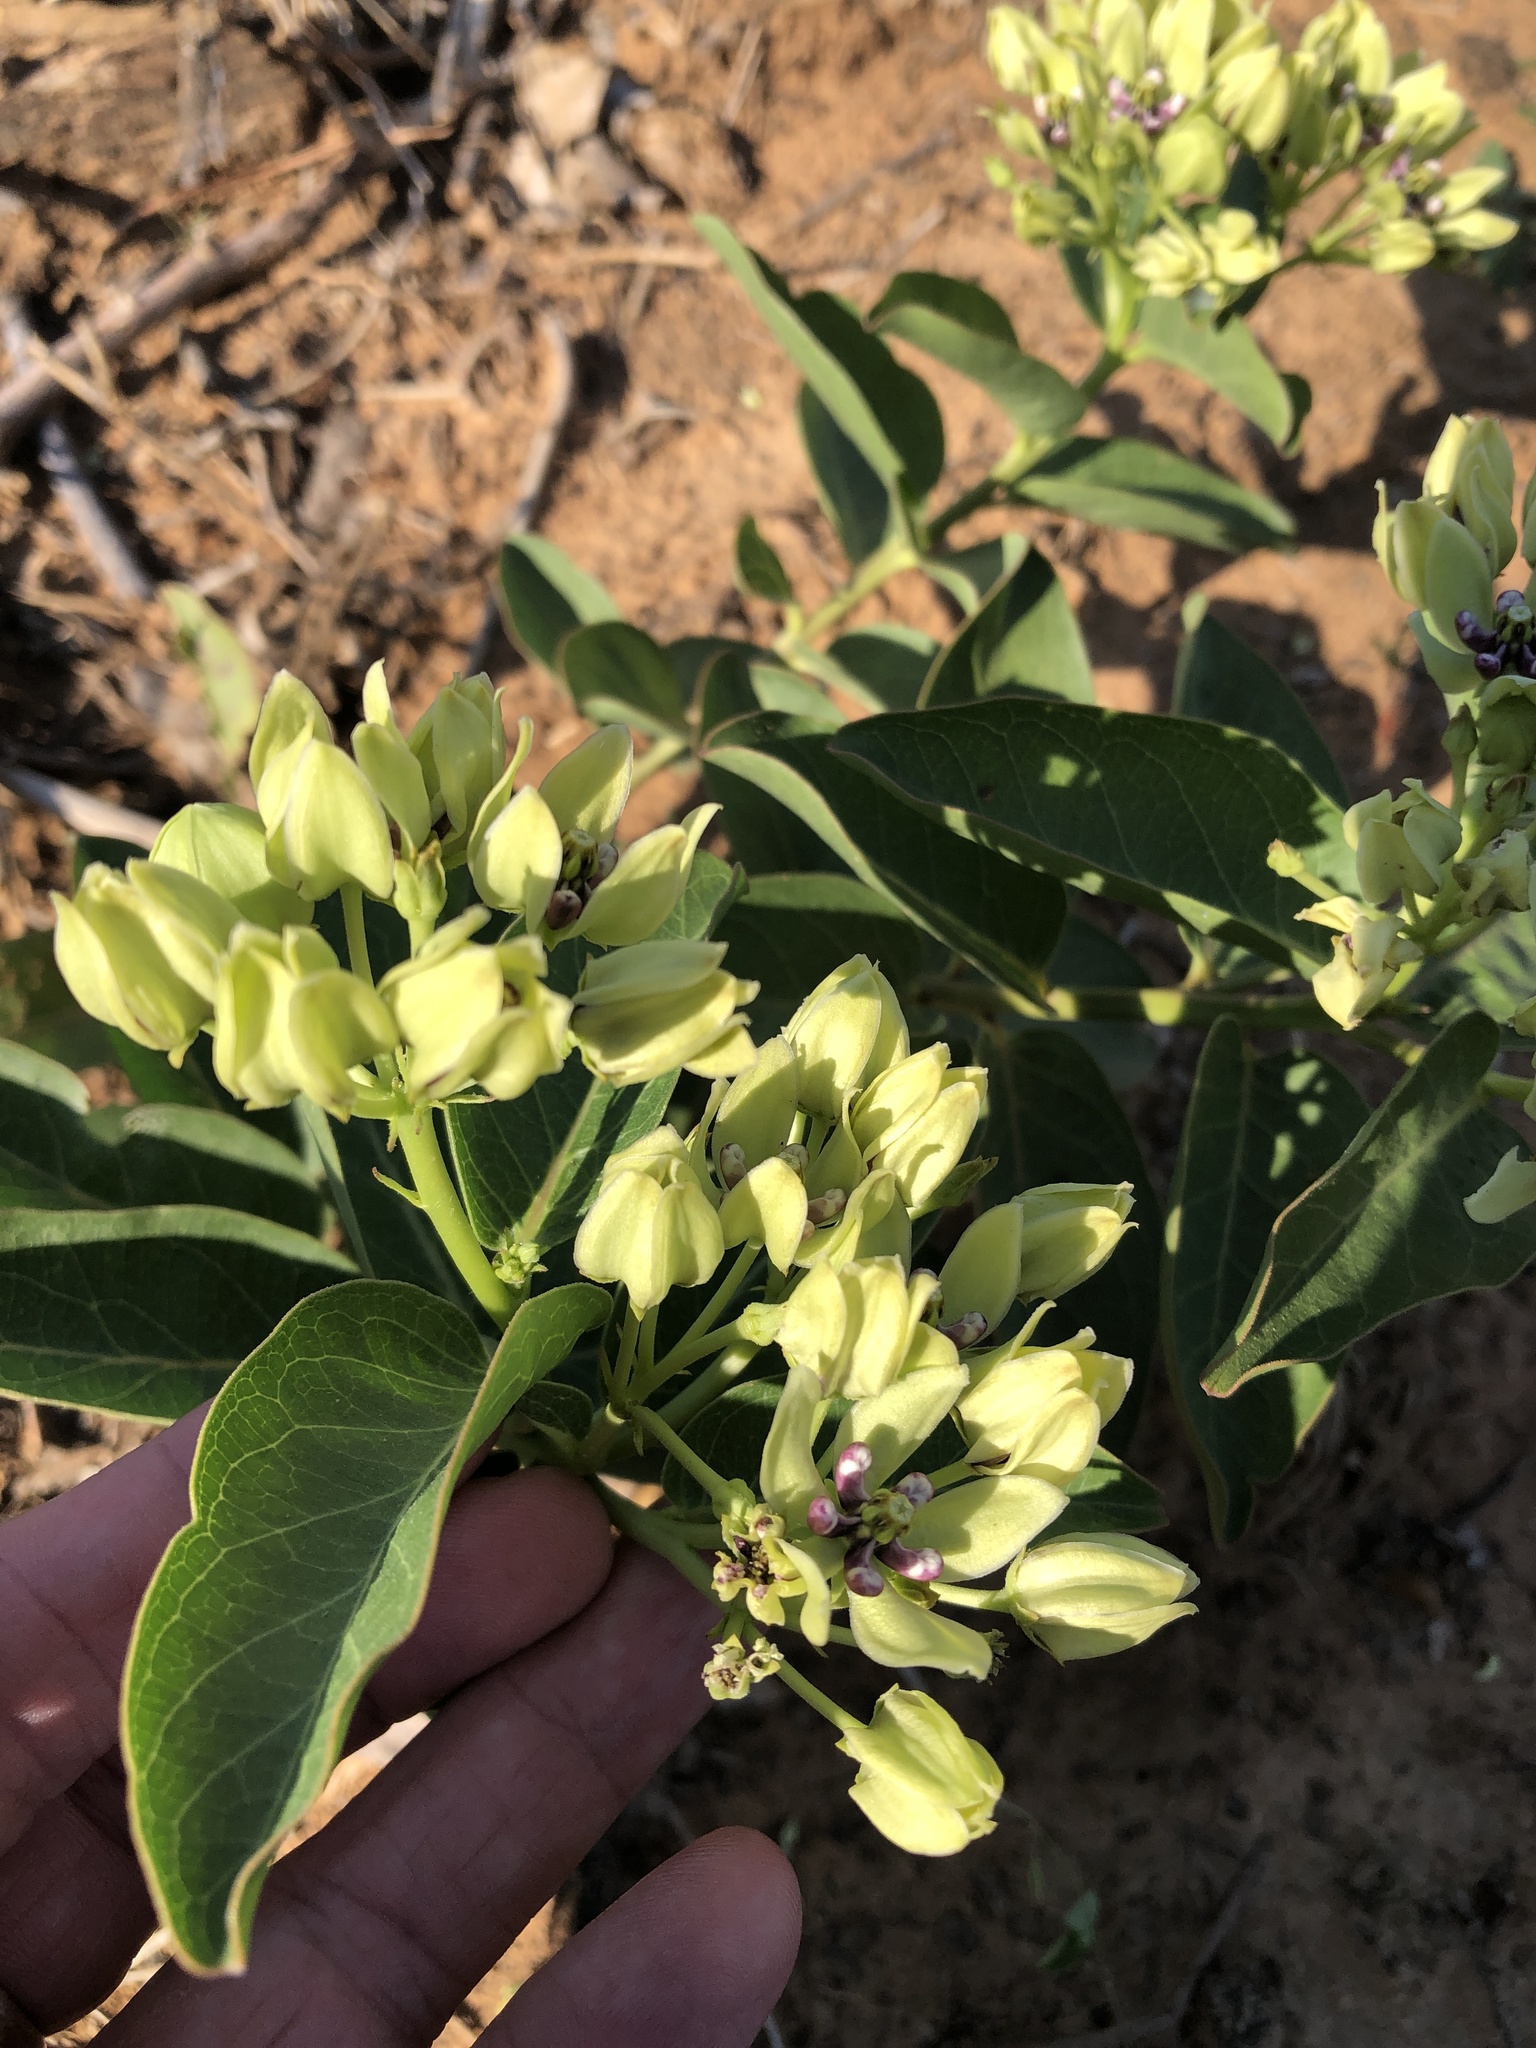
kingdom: Plantae
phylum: Tracheophyta
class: Magnoliopsida
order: Gentianales
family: Apocynaceae
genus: Asclepias
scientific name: Asclepias viridis
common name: Antelope-horns
